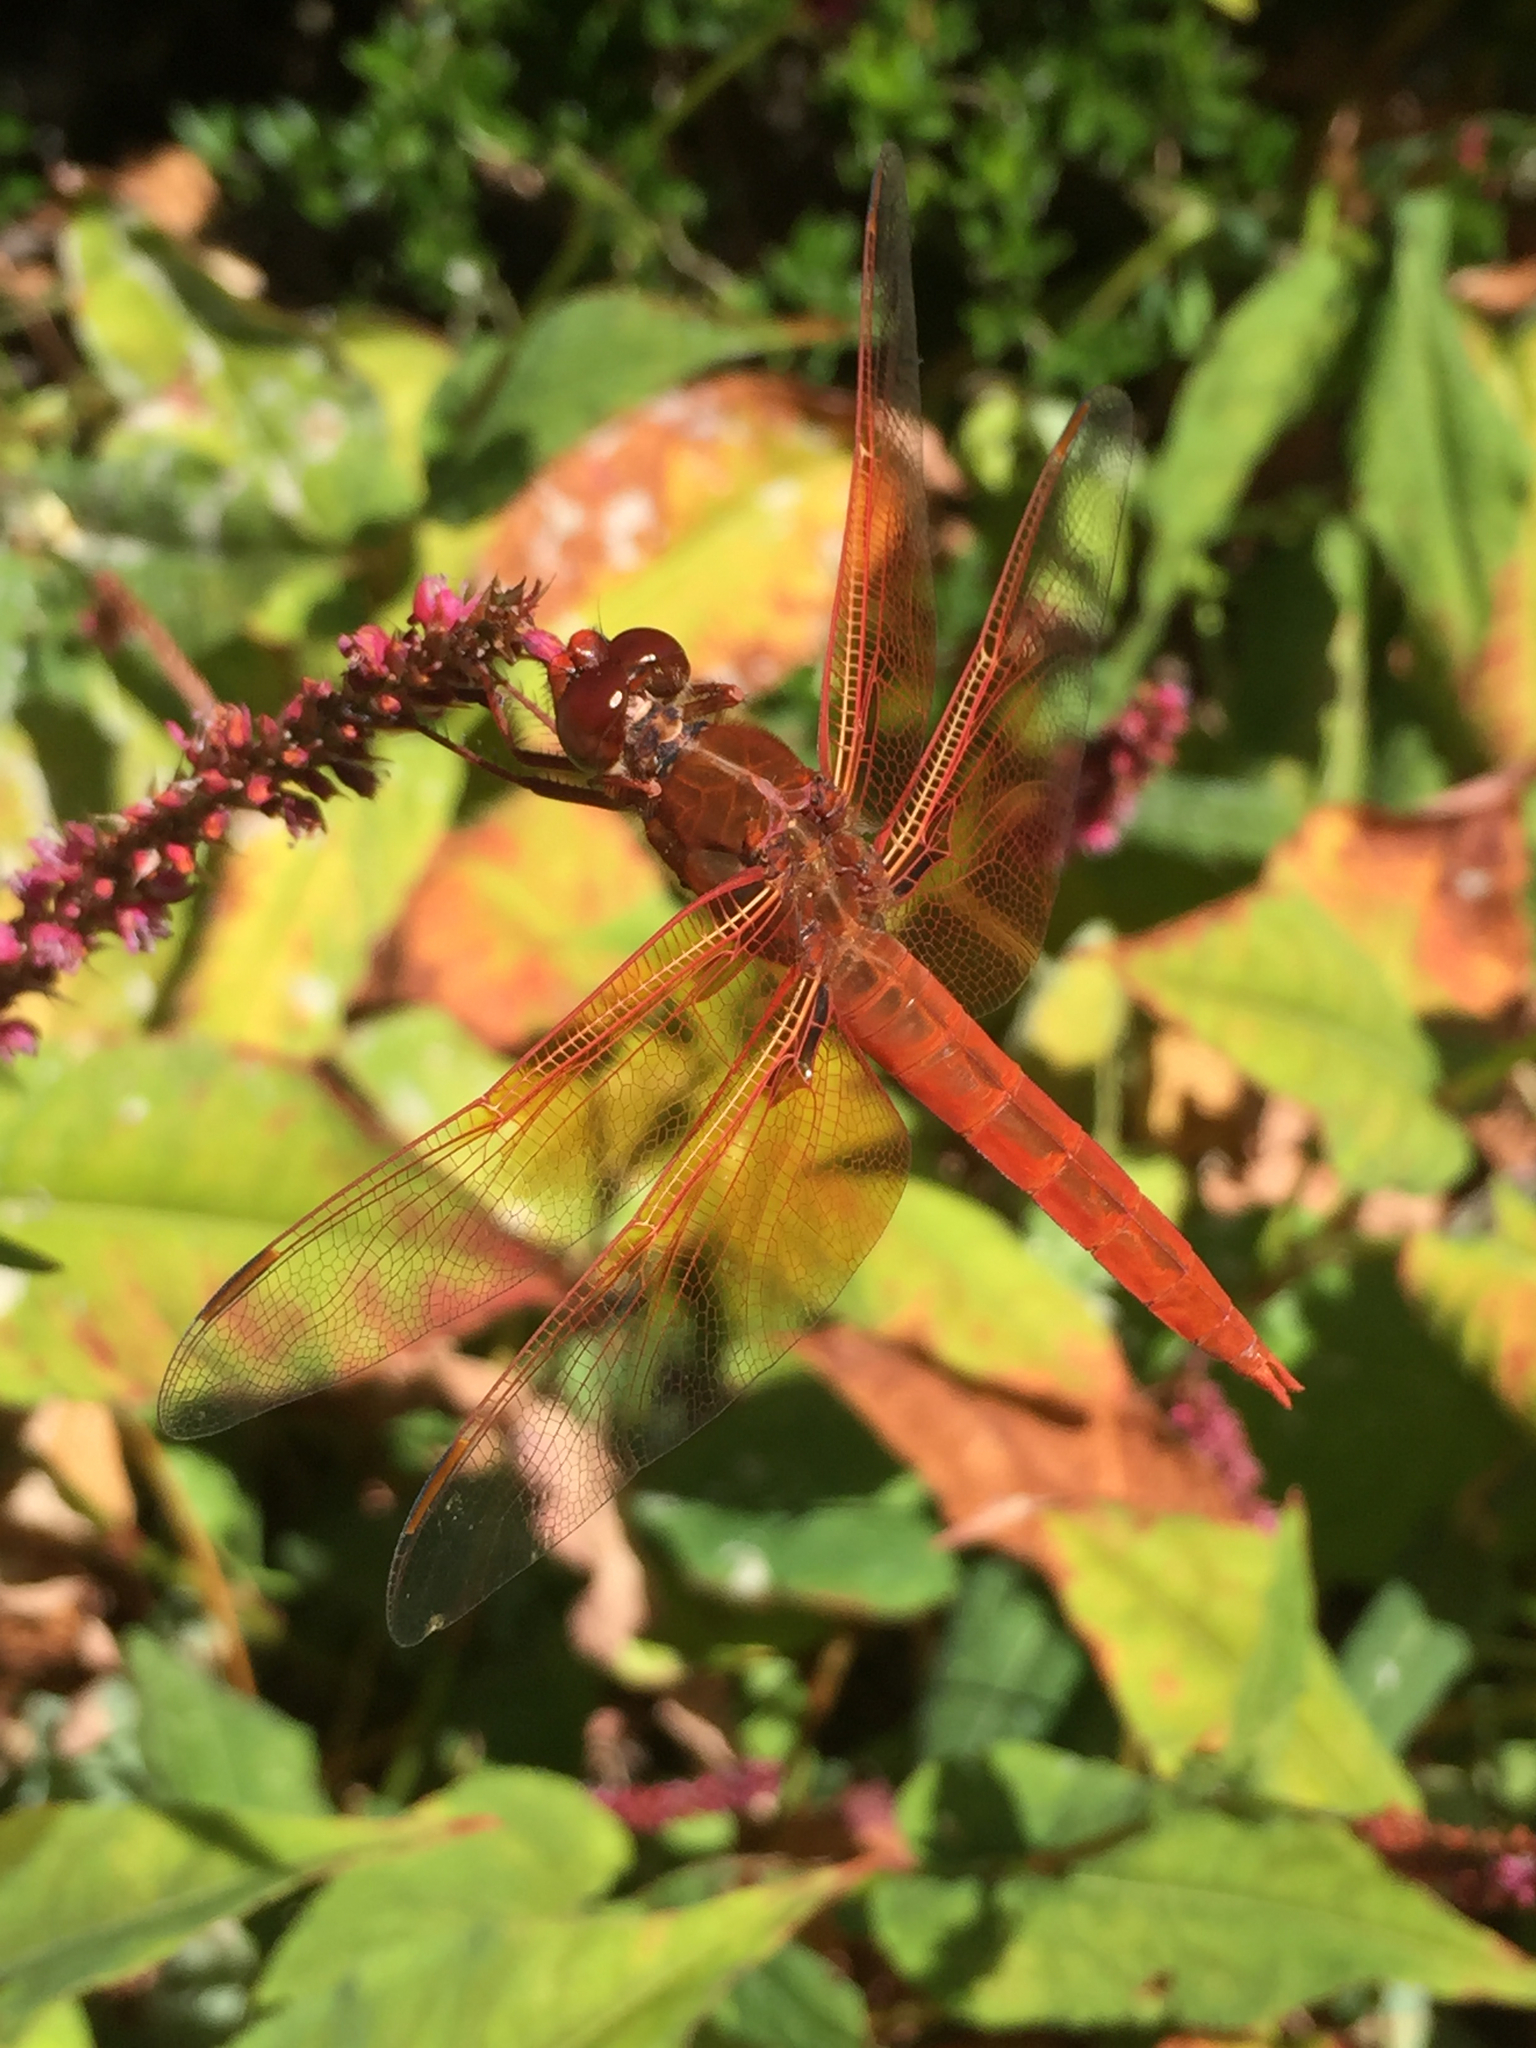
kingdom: Animalia
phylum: Arthropoda
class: Insecta
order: Odonata
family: Libellulidae
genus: Libellula
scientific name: Libellula saturata
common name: Flame skimmer
